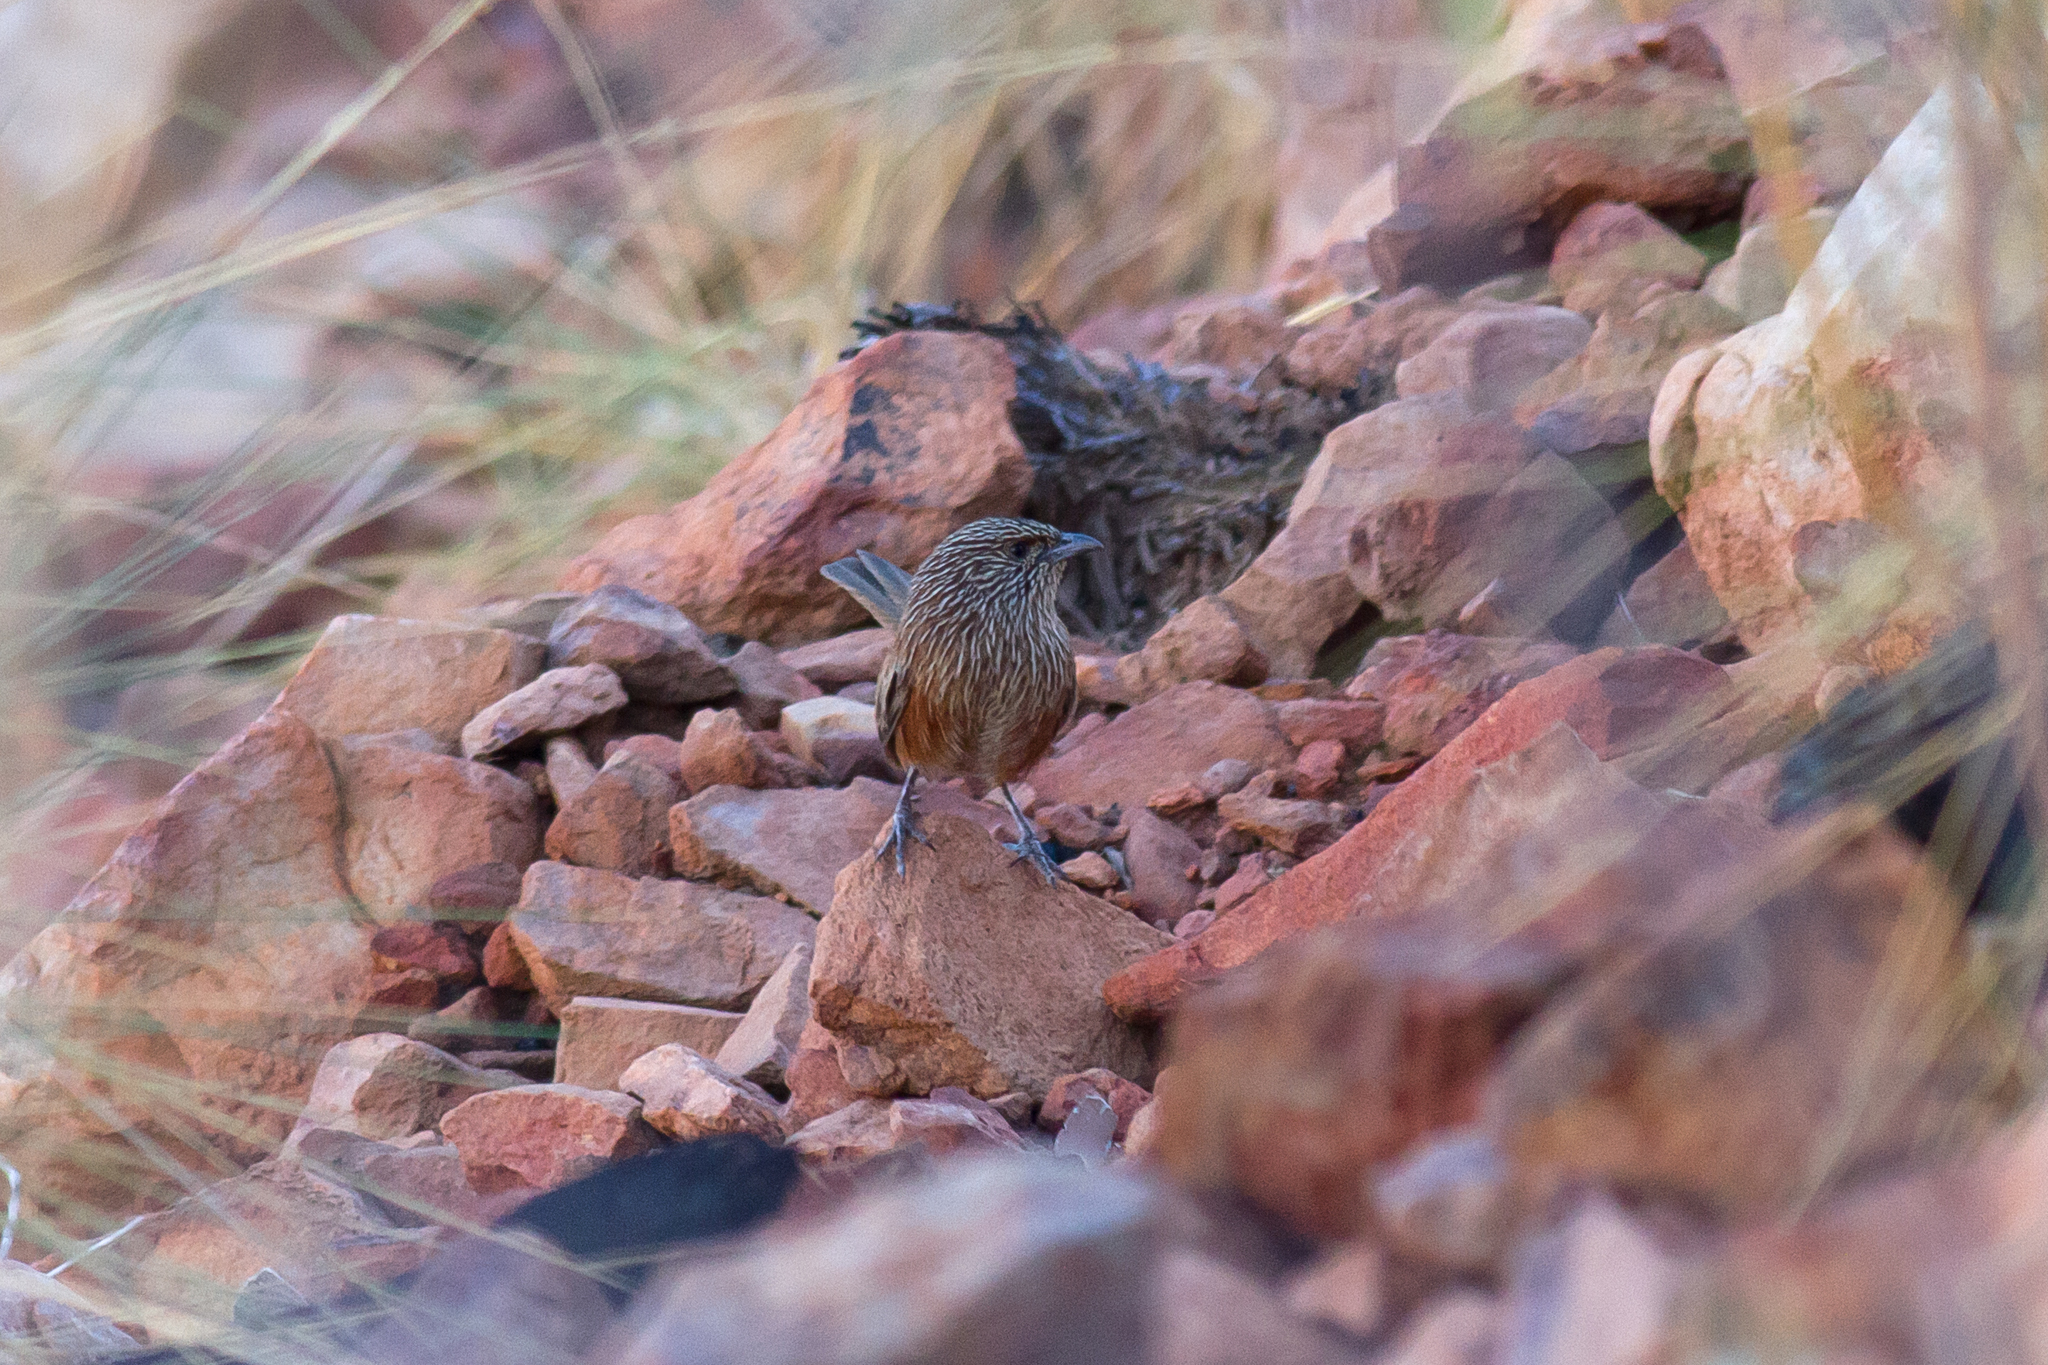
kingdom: Animalia
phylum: Chordata
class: Aves
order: Passeriformes
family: Maluridae
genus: Amytornis
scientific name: Amytornis ballarae
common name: Kalkadoon grasswren
